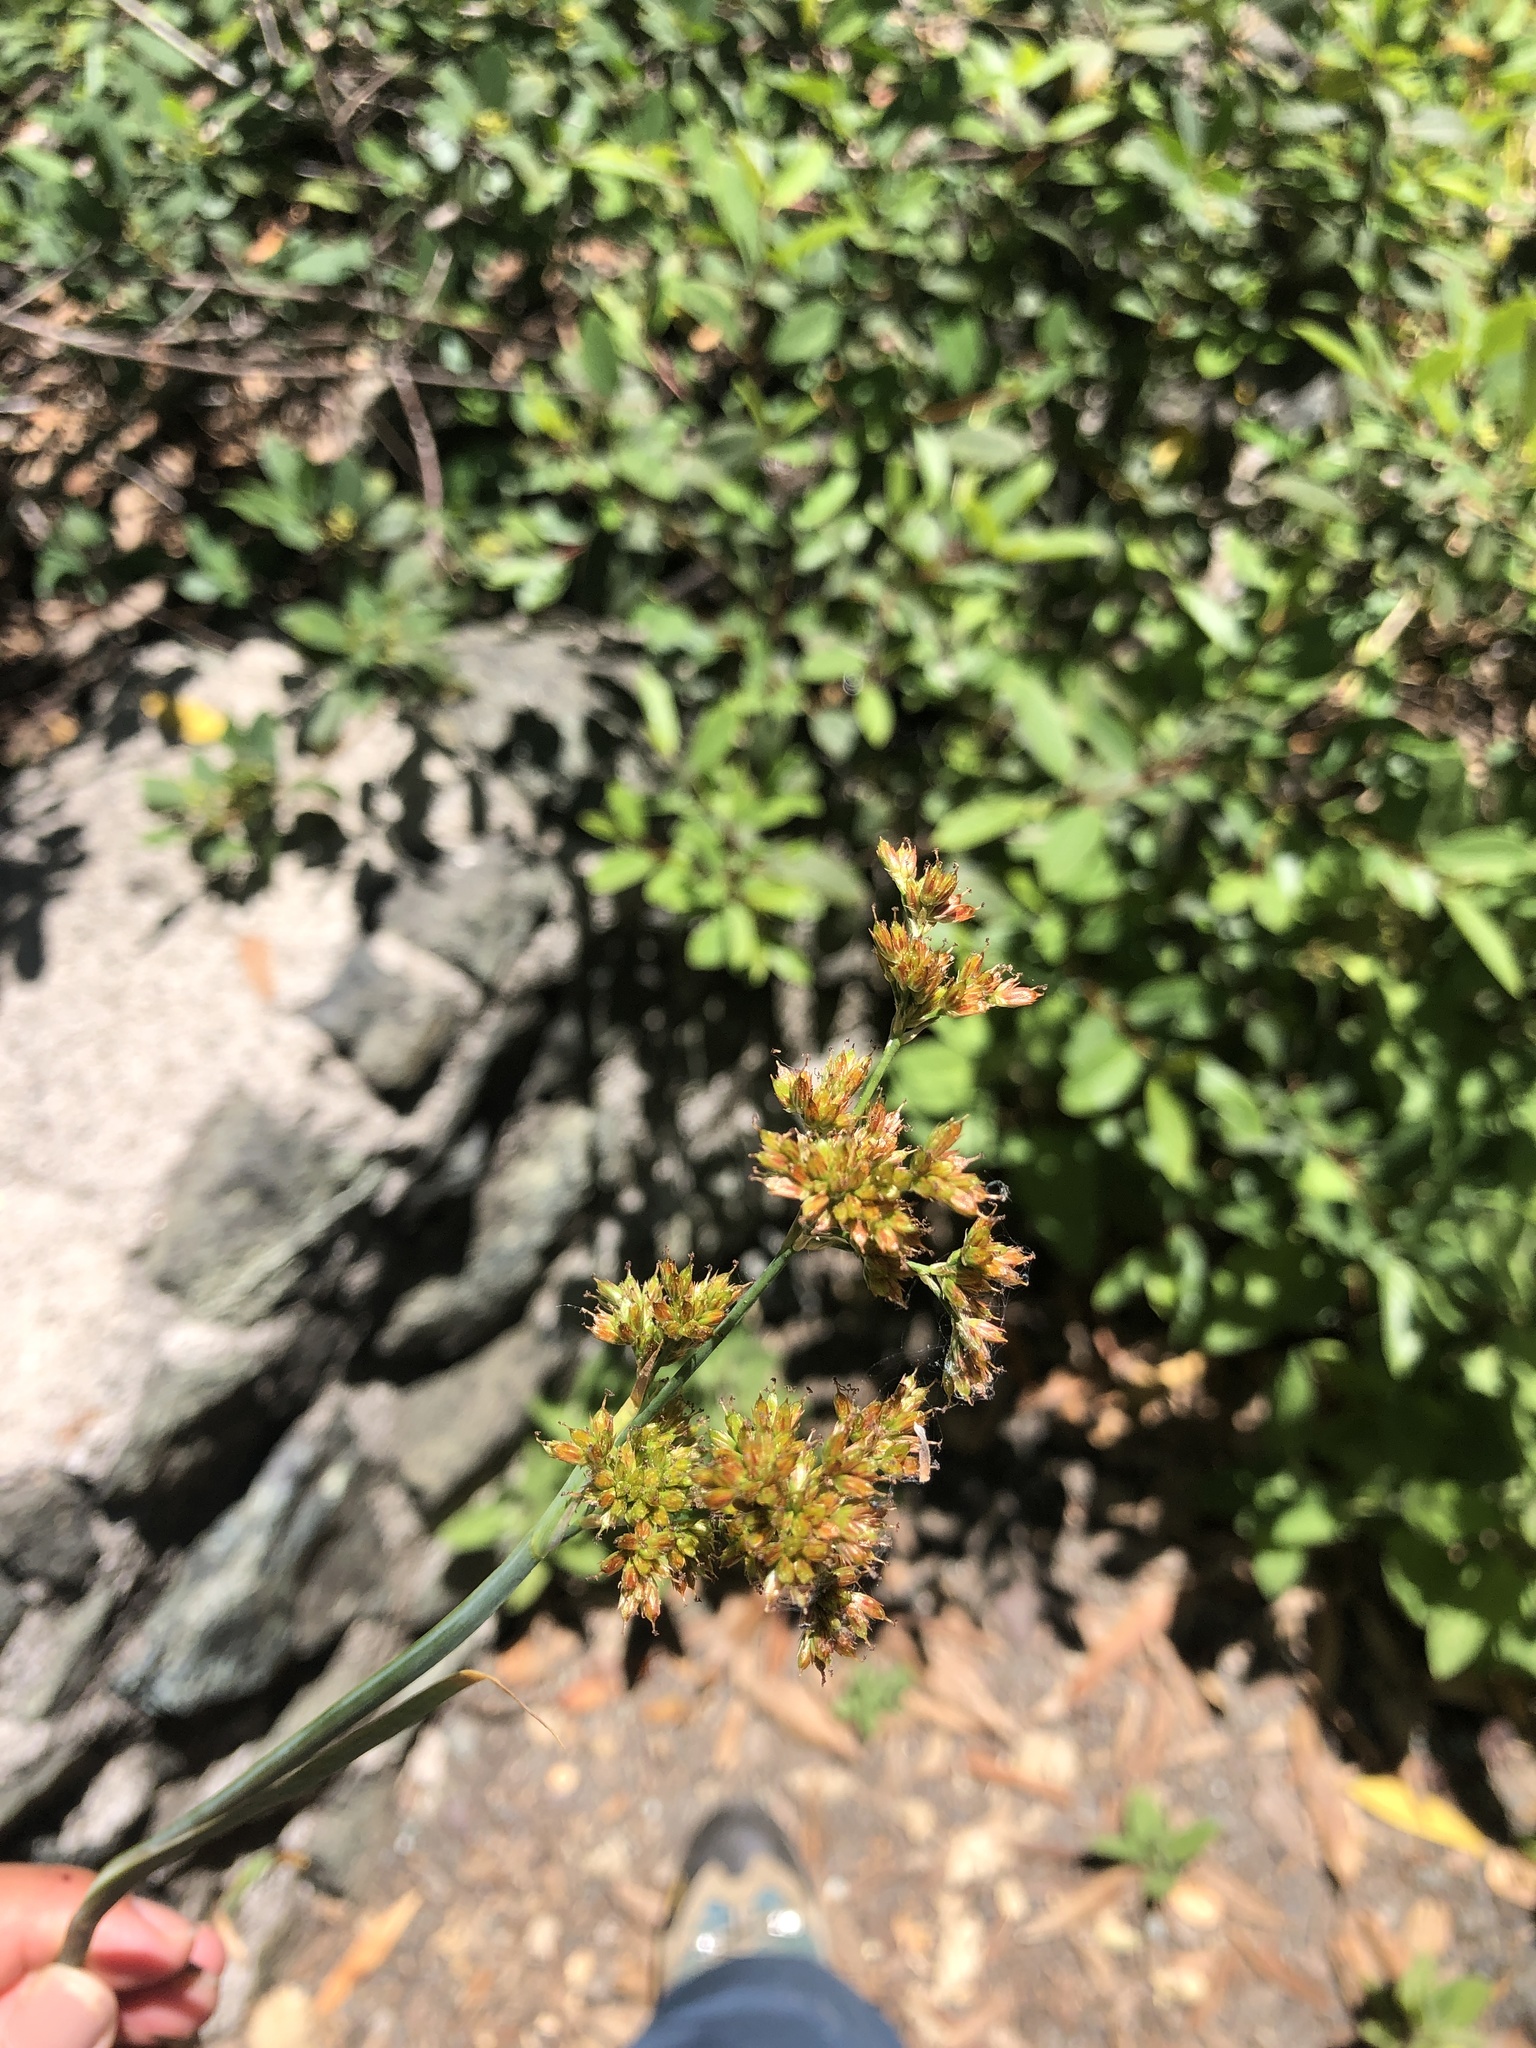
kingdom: Plantae
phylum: Tracheophyta
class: Liliopsida
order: Poales
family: Juncaceae
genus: Juncus
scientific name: Juncus xiphioides
